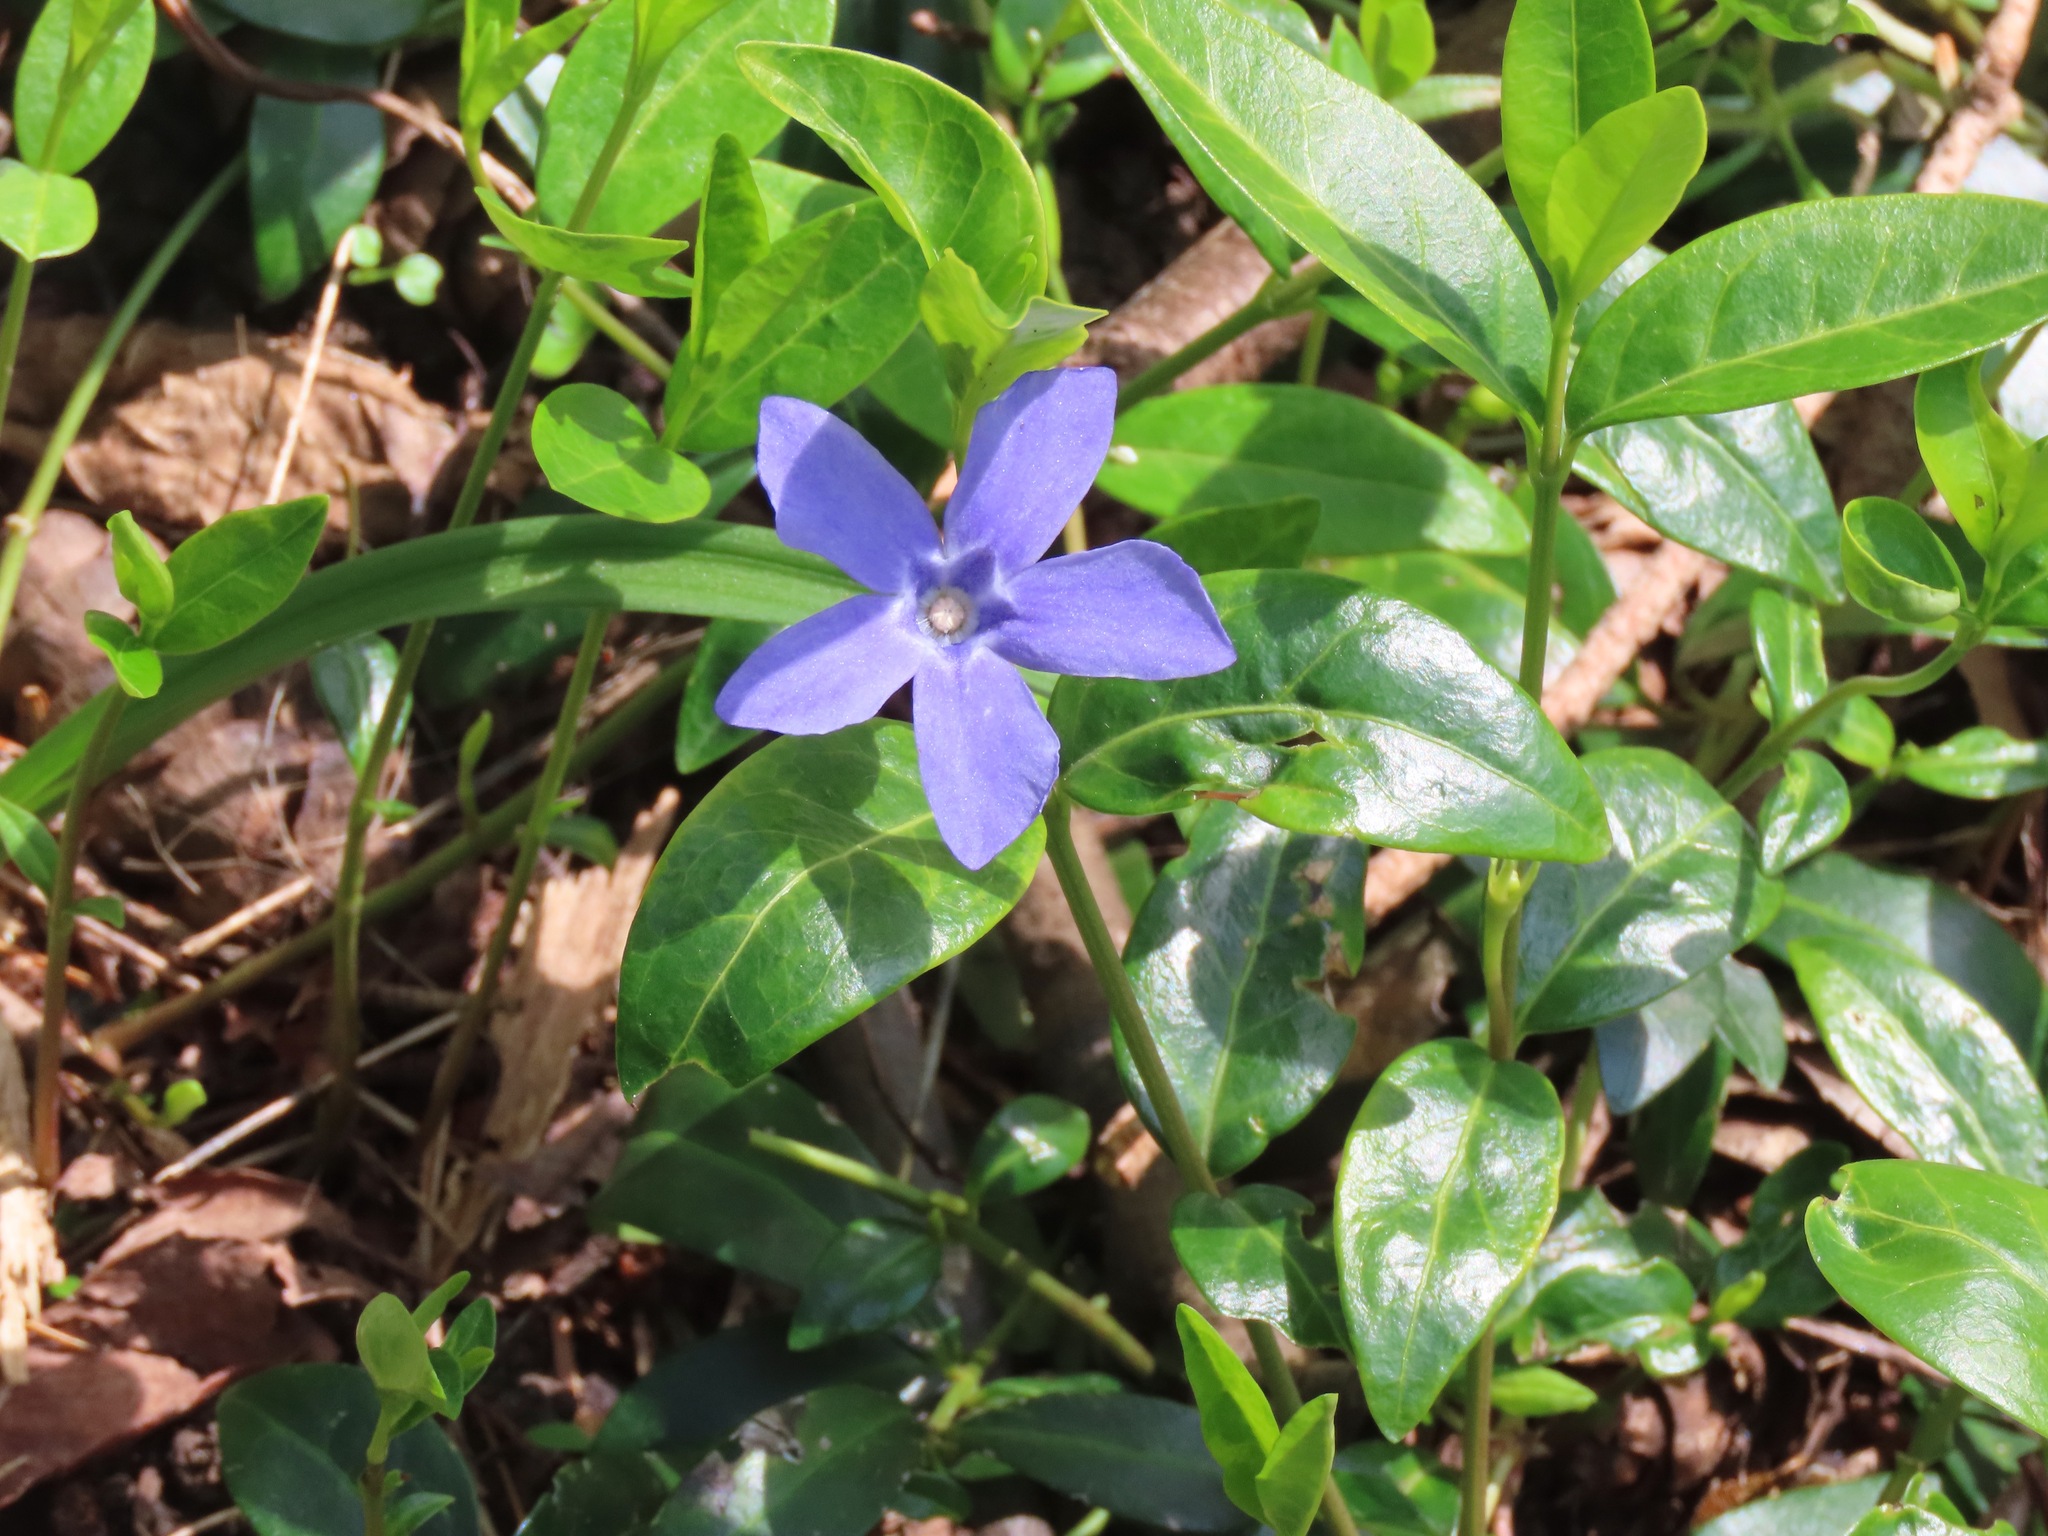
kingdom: Plantae
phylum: Tracheophyta
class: Magnoliopsida
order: Gentianales
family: Apocynaceae
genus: Vinca
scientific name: Vinca minor
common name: Lesser periwinkle
